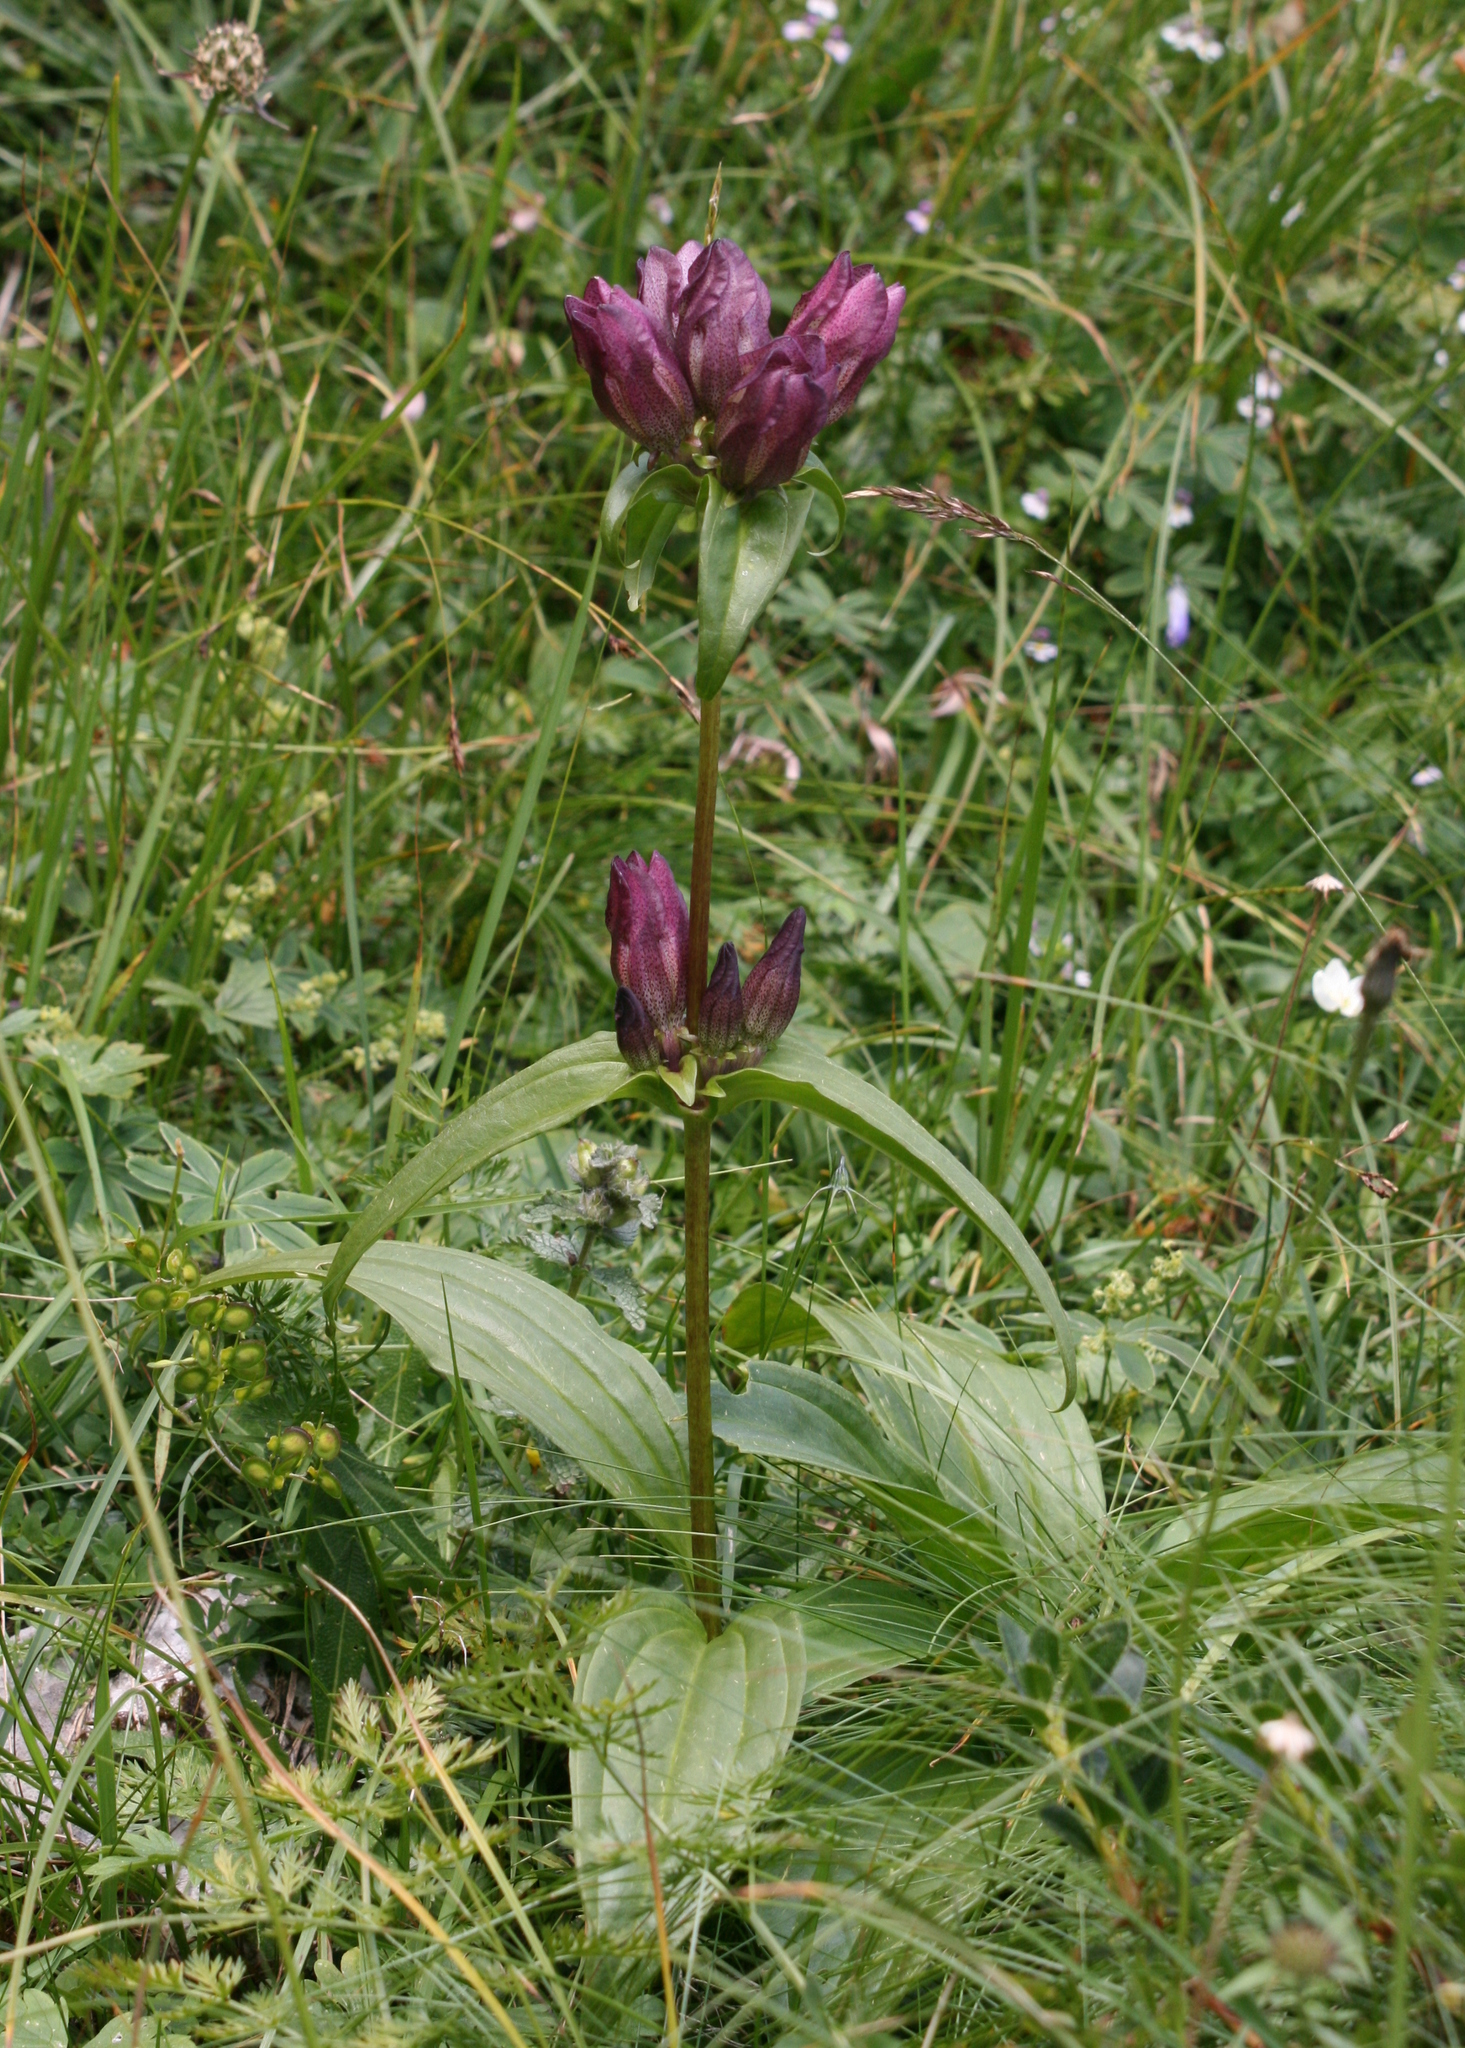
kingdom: Plantae
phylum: Tracheophyta
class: Magnoliopsida
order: Gentianales
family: Gentianaceae
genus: Gentiana
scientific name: Gentiana pannonica
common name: Hungarian gentian
